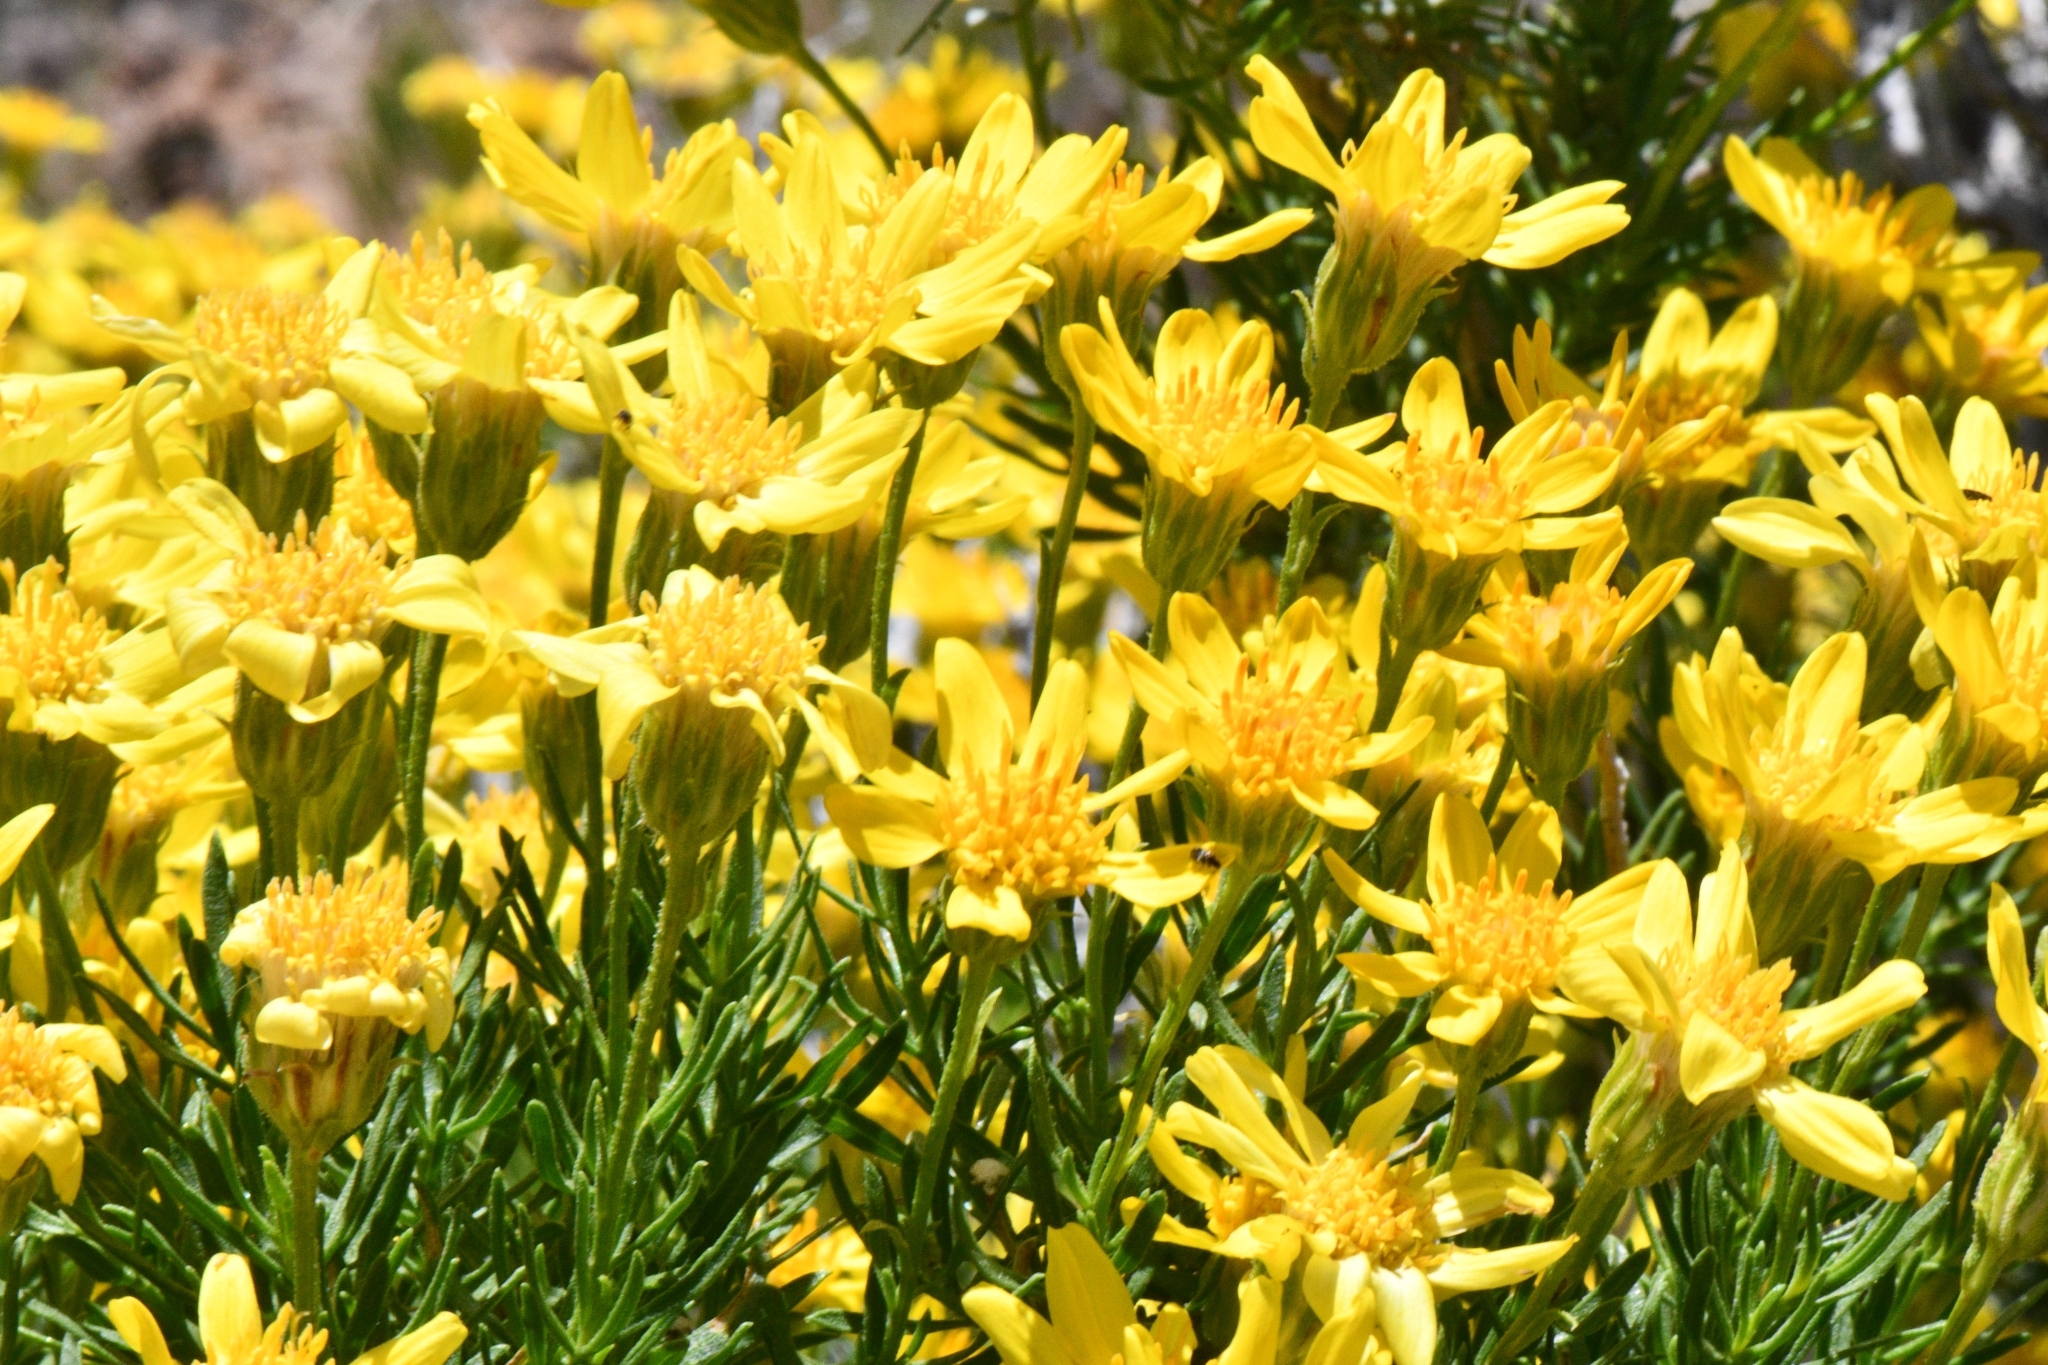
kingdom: Plantae
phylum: Tracheophyta
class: Magnoliopsida
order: Asterales
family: Asteraceae
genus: Ericameria
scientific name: Ericameria linearifolia
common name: Interior goldenbush
